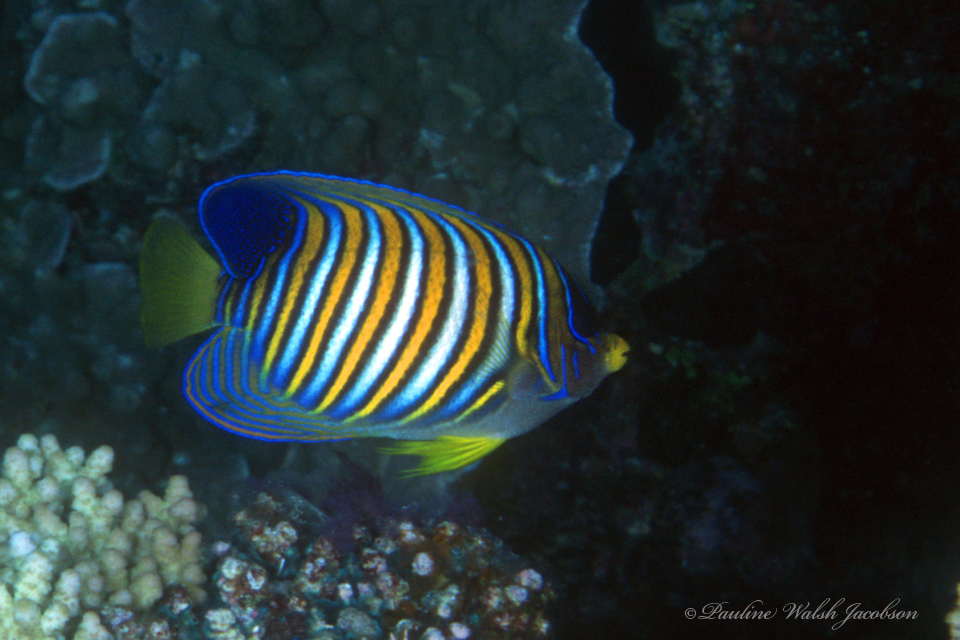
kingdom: Animalia
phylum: Chordata
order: Perciformes
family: Pomacanthidae
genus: Pygoplites
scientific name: Pygoplites diacanthus
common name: Regal angelfish
